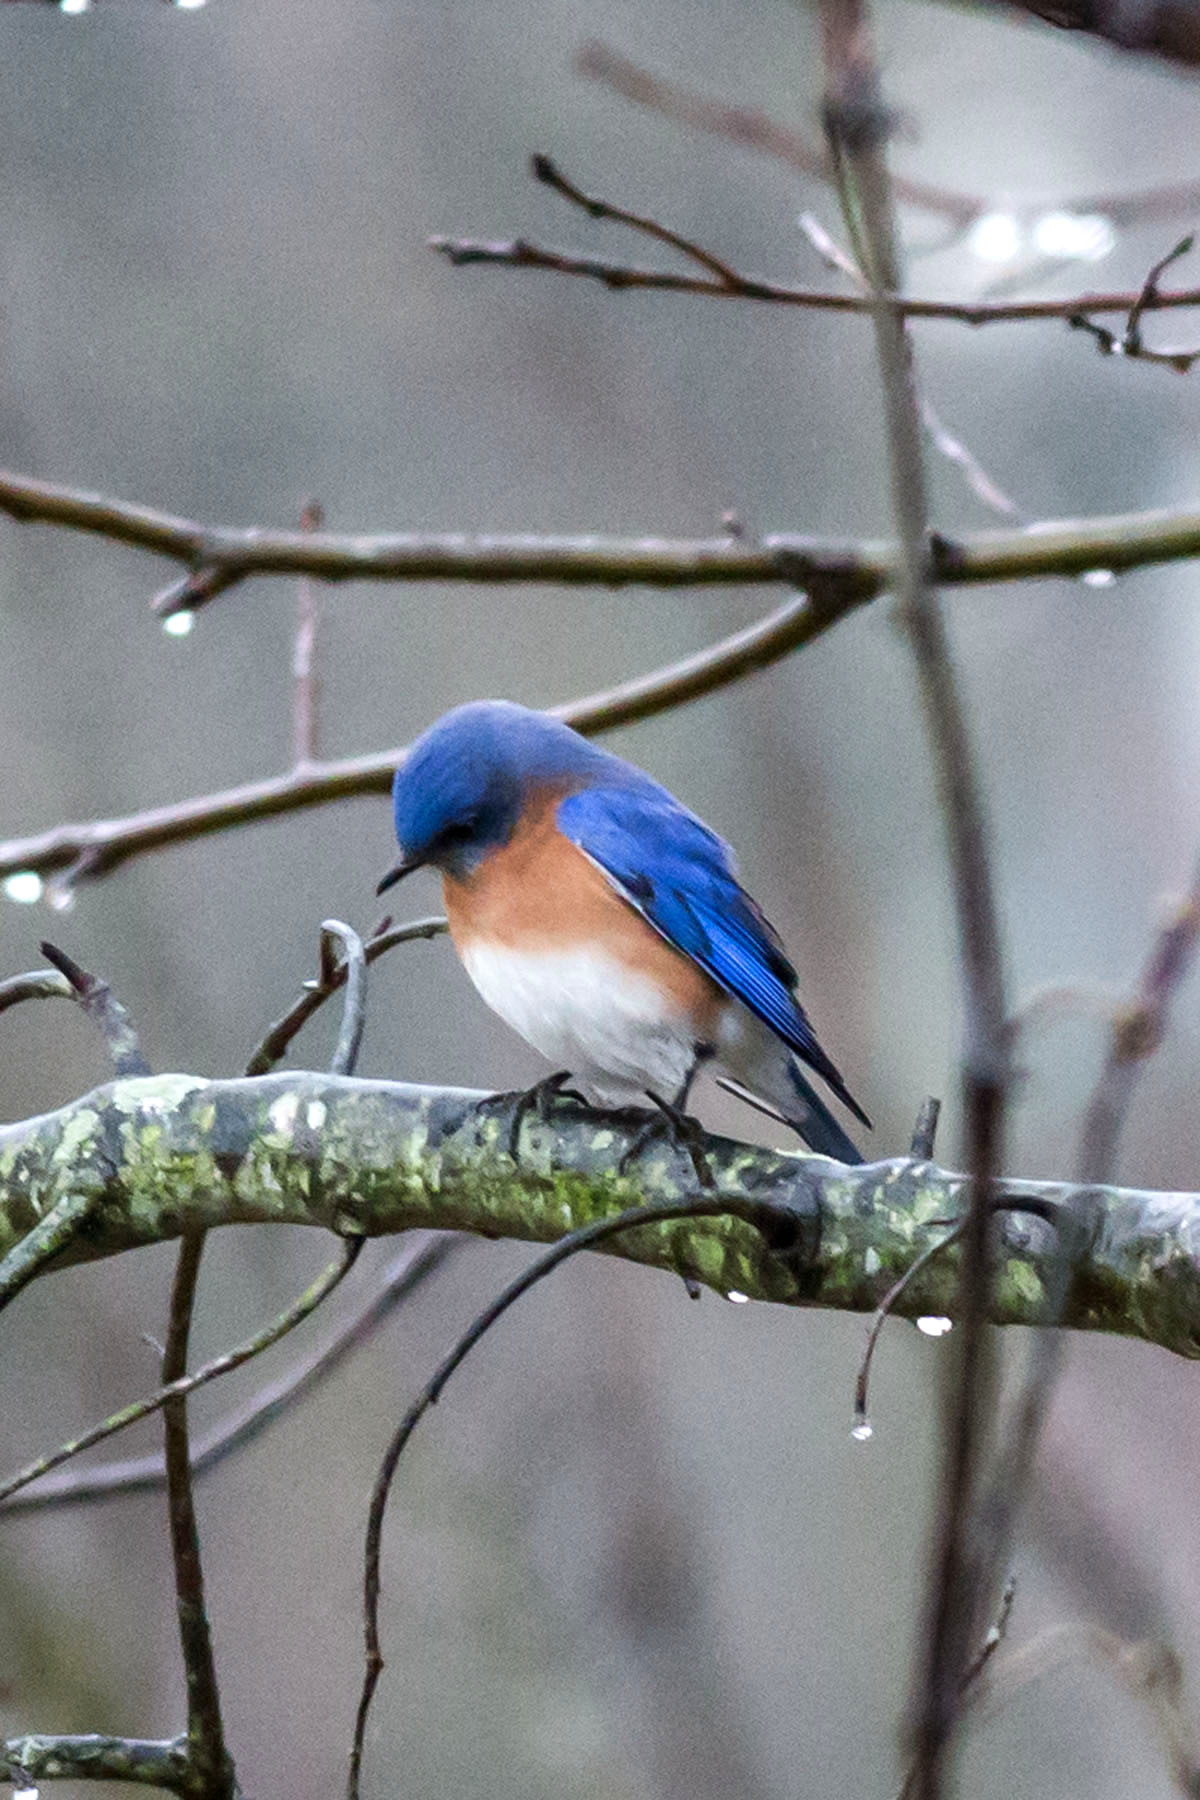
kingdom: Animalia
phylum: Chordata
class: Aves
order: Passeriformes
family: Turdidae
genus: Sialia
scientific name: Sialia sialis
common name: Eastern bluebird
